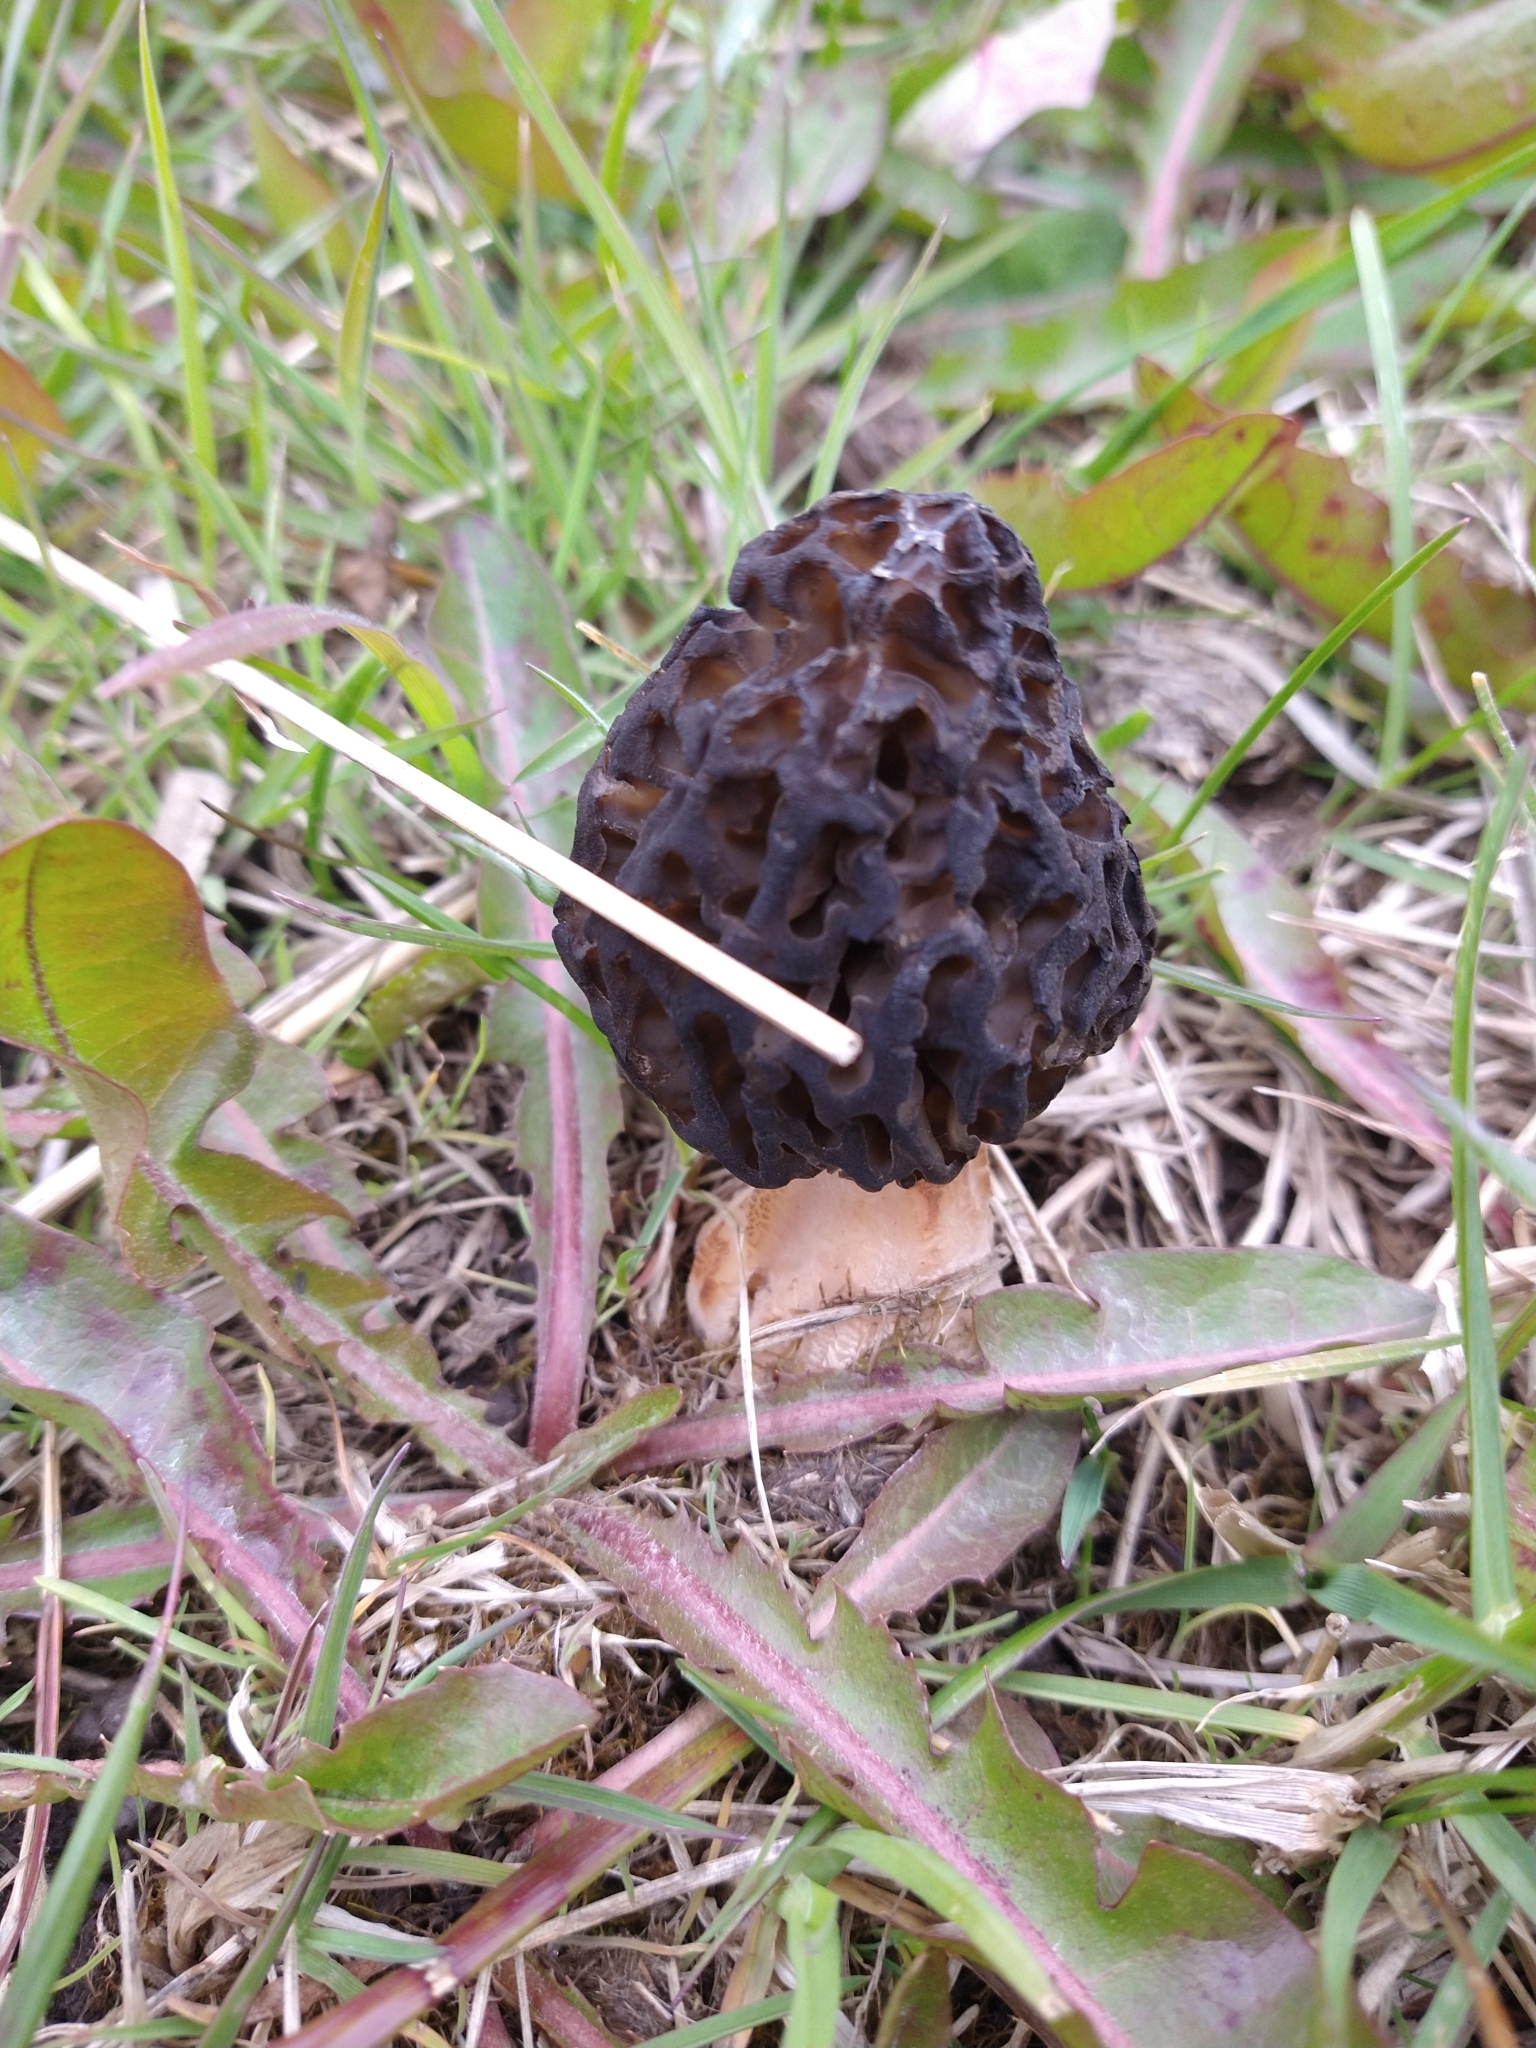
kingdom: Fungi
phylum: Ascomycota
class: Pezizomycetes
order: Pezizales
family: Morchellaceae
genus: Morchella
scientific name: Morchella andinensis
